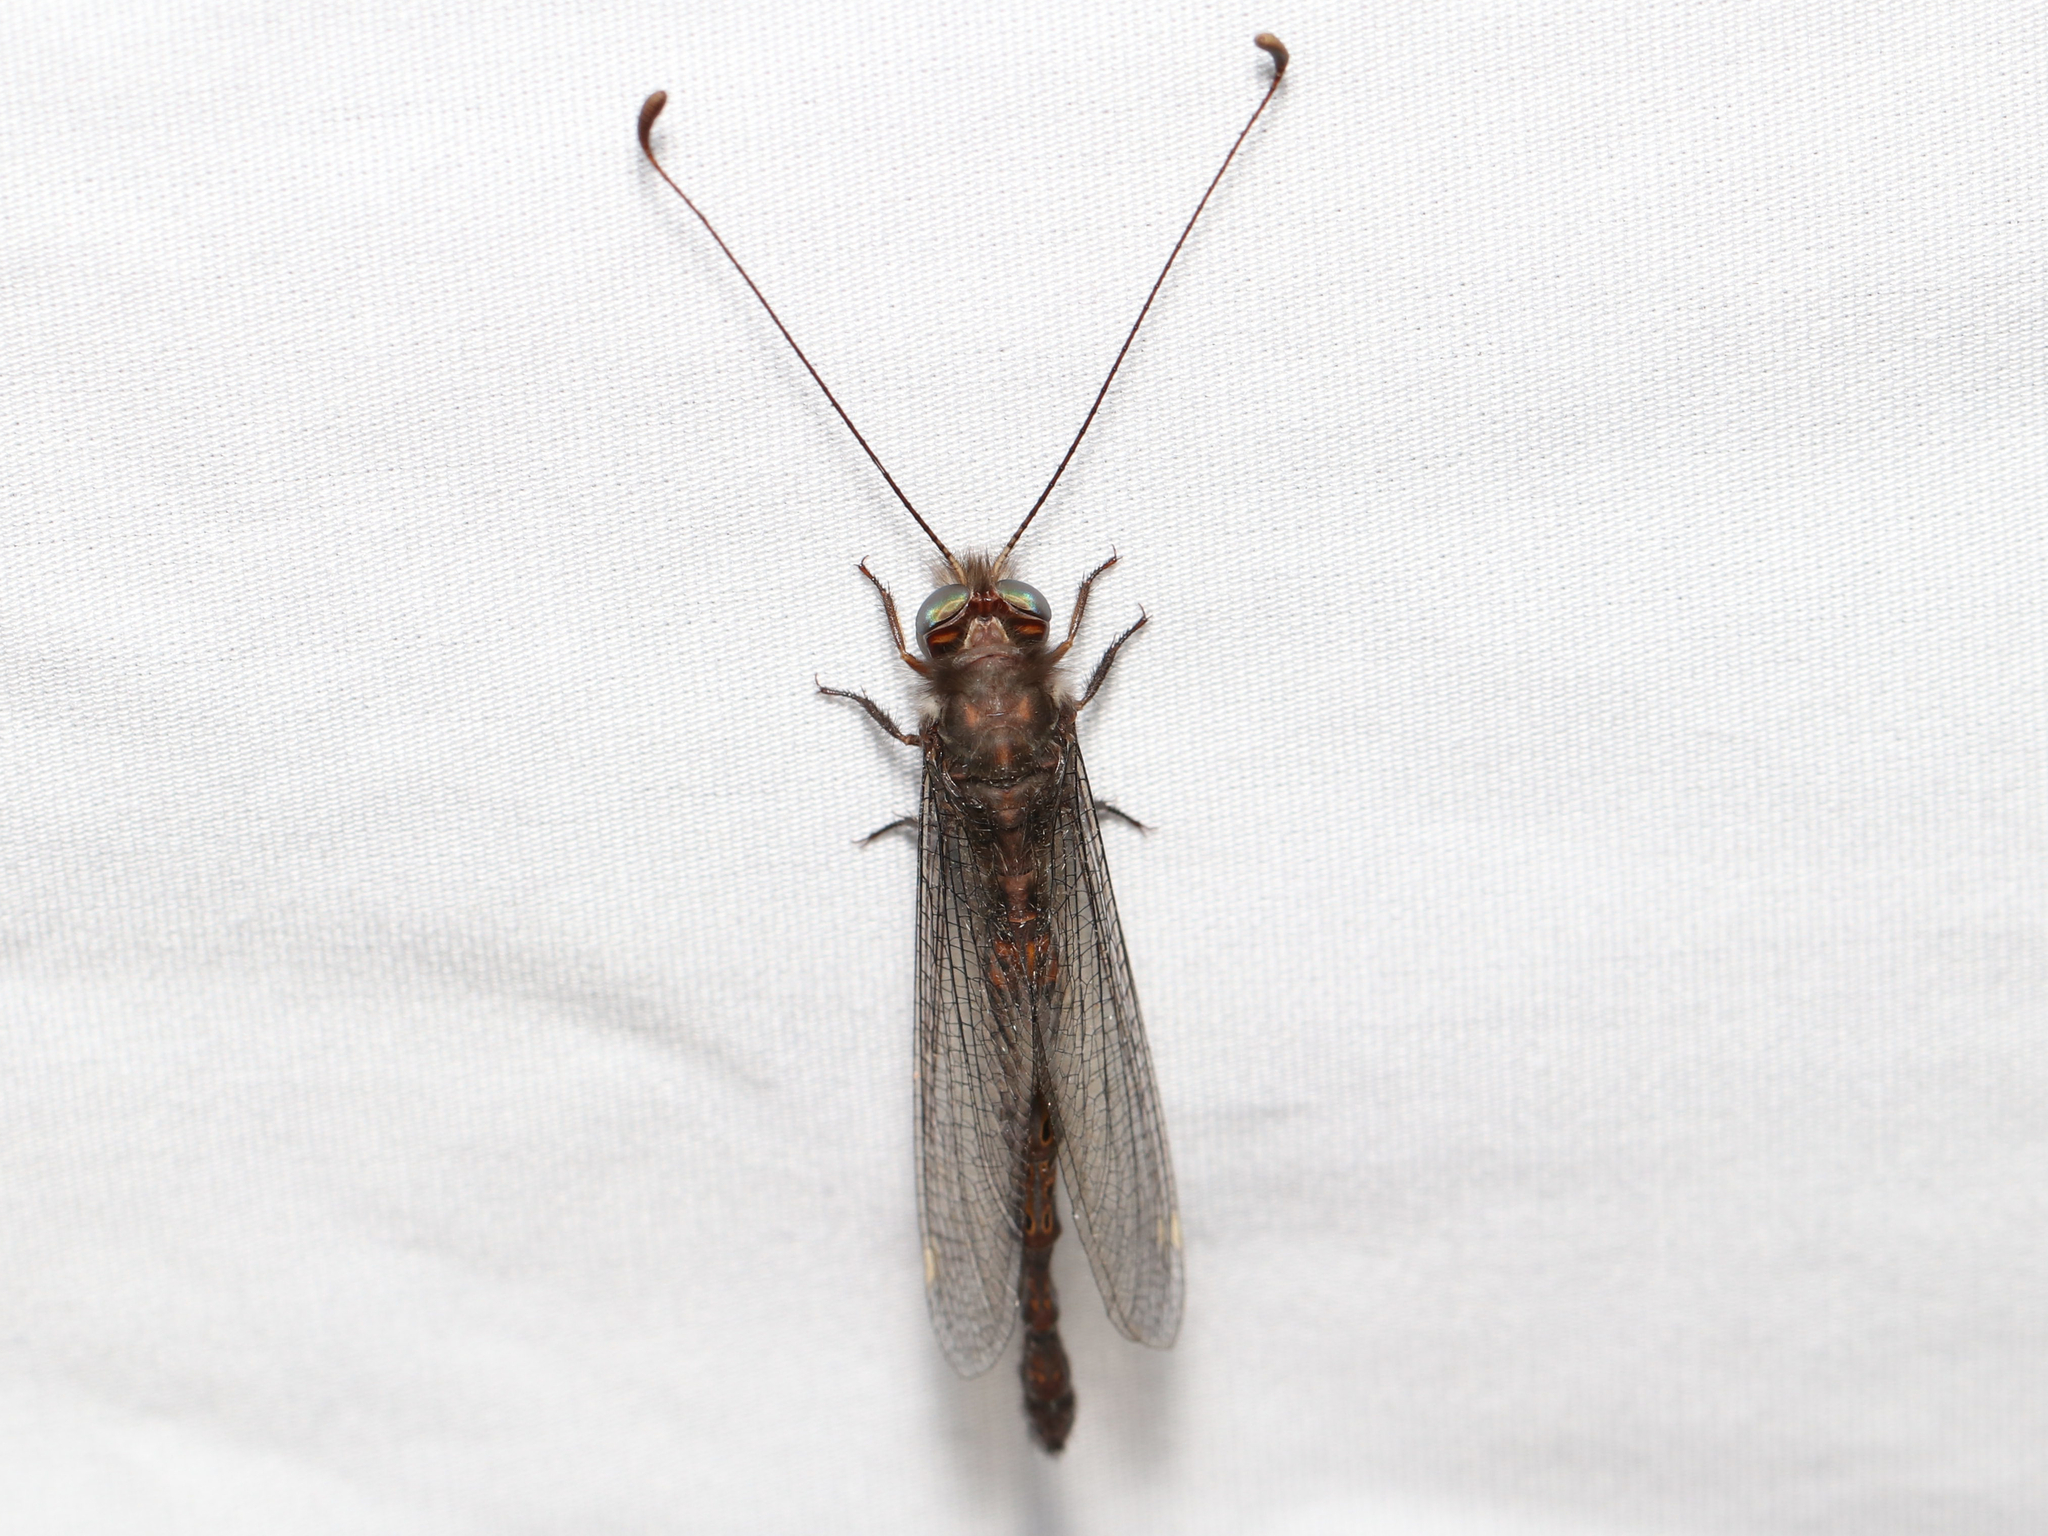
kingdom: Animalia
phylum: Arthropoda
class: Insecta
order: Neuroptera
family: Ascalaphidae
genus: Ululodes
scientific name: Ululodes quadripunctatus
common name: Four-spotted owlfly
